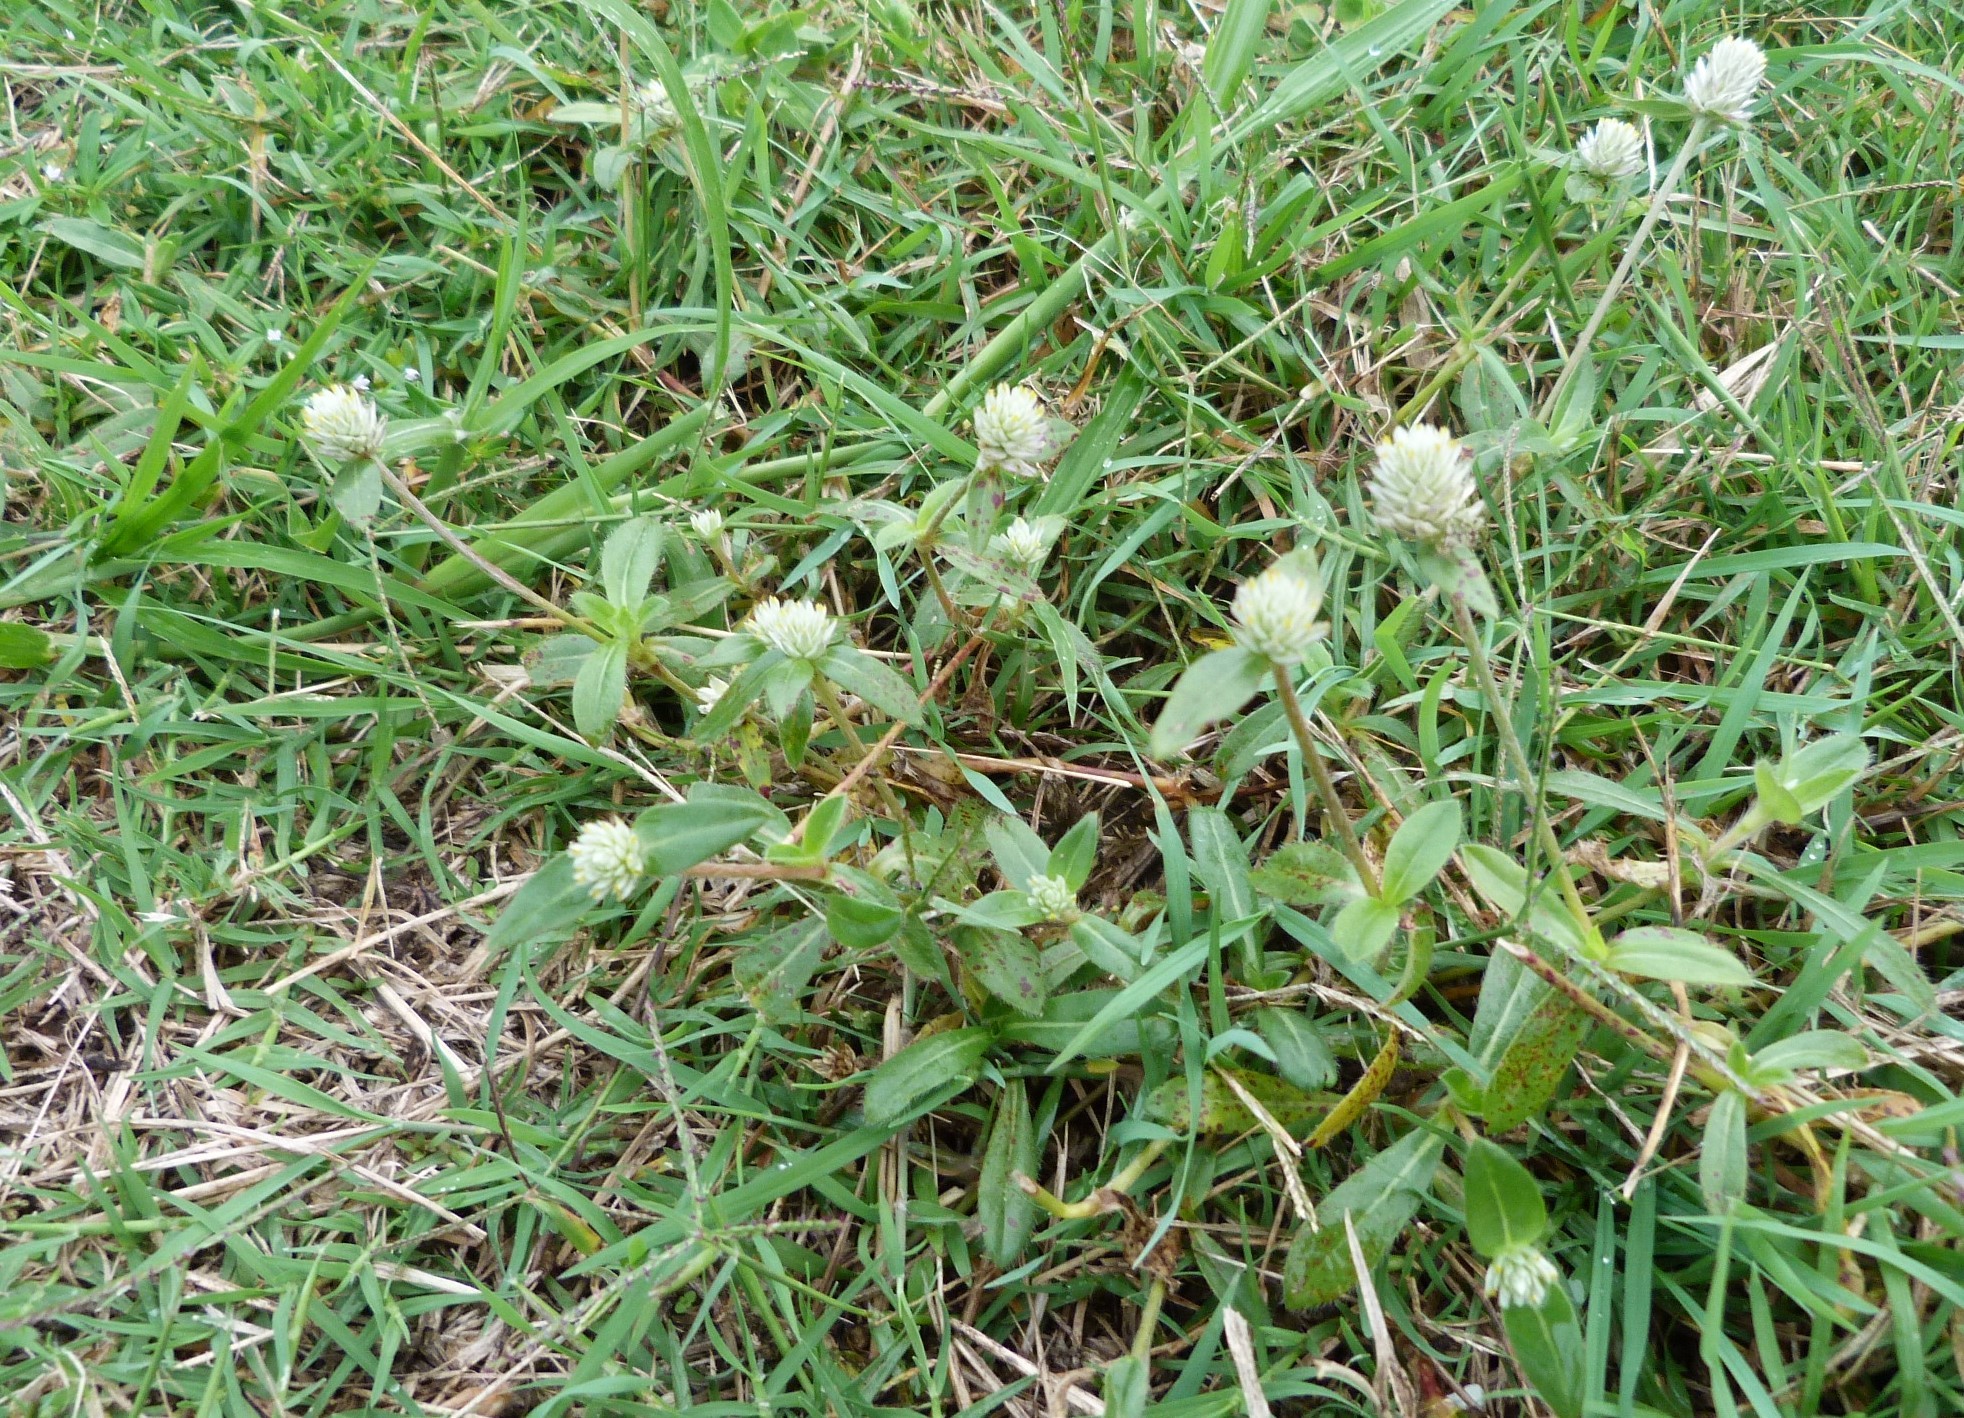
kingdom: Plantae
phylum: Tracheophyta
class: Magnoliopsida
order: Caryophyllales
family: Amaranthaceae
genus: Gomphrena
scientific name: Gomphrena celosioides
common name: Gomphrena-weed
